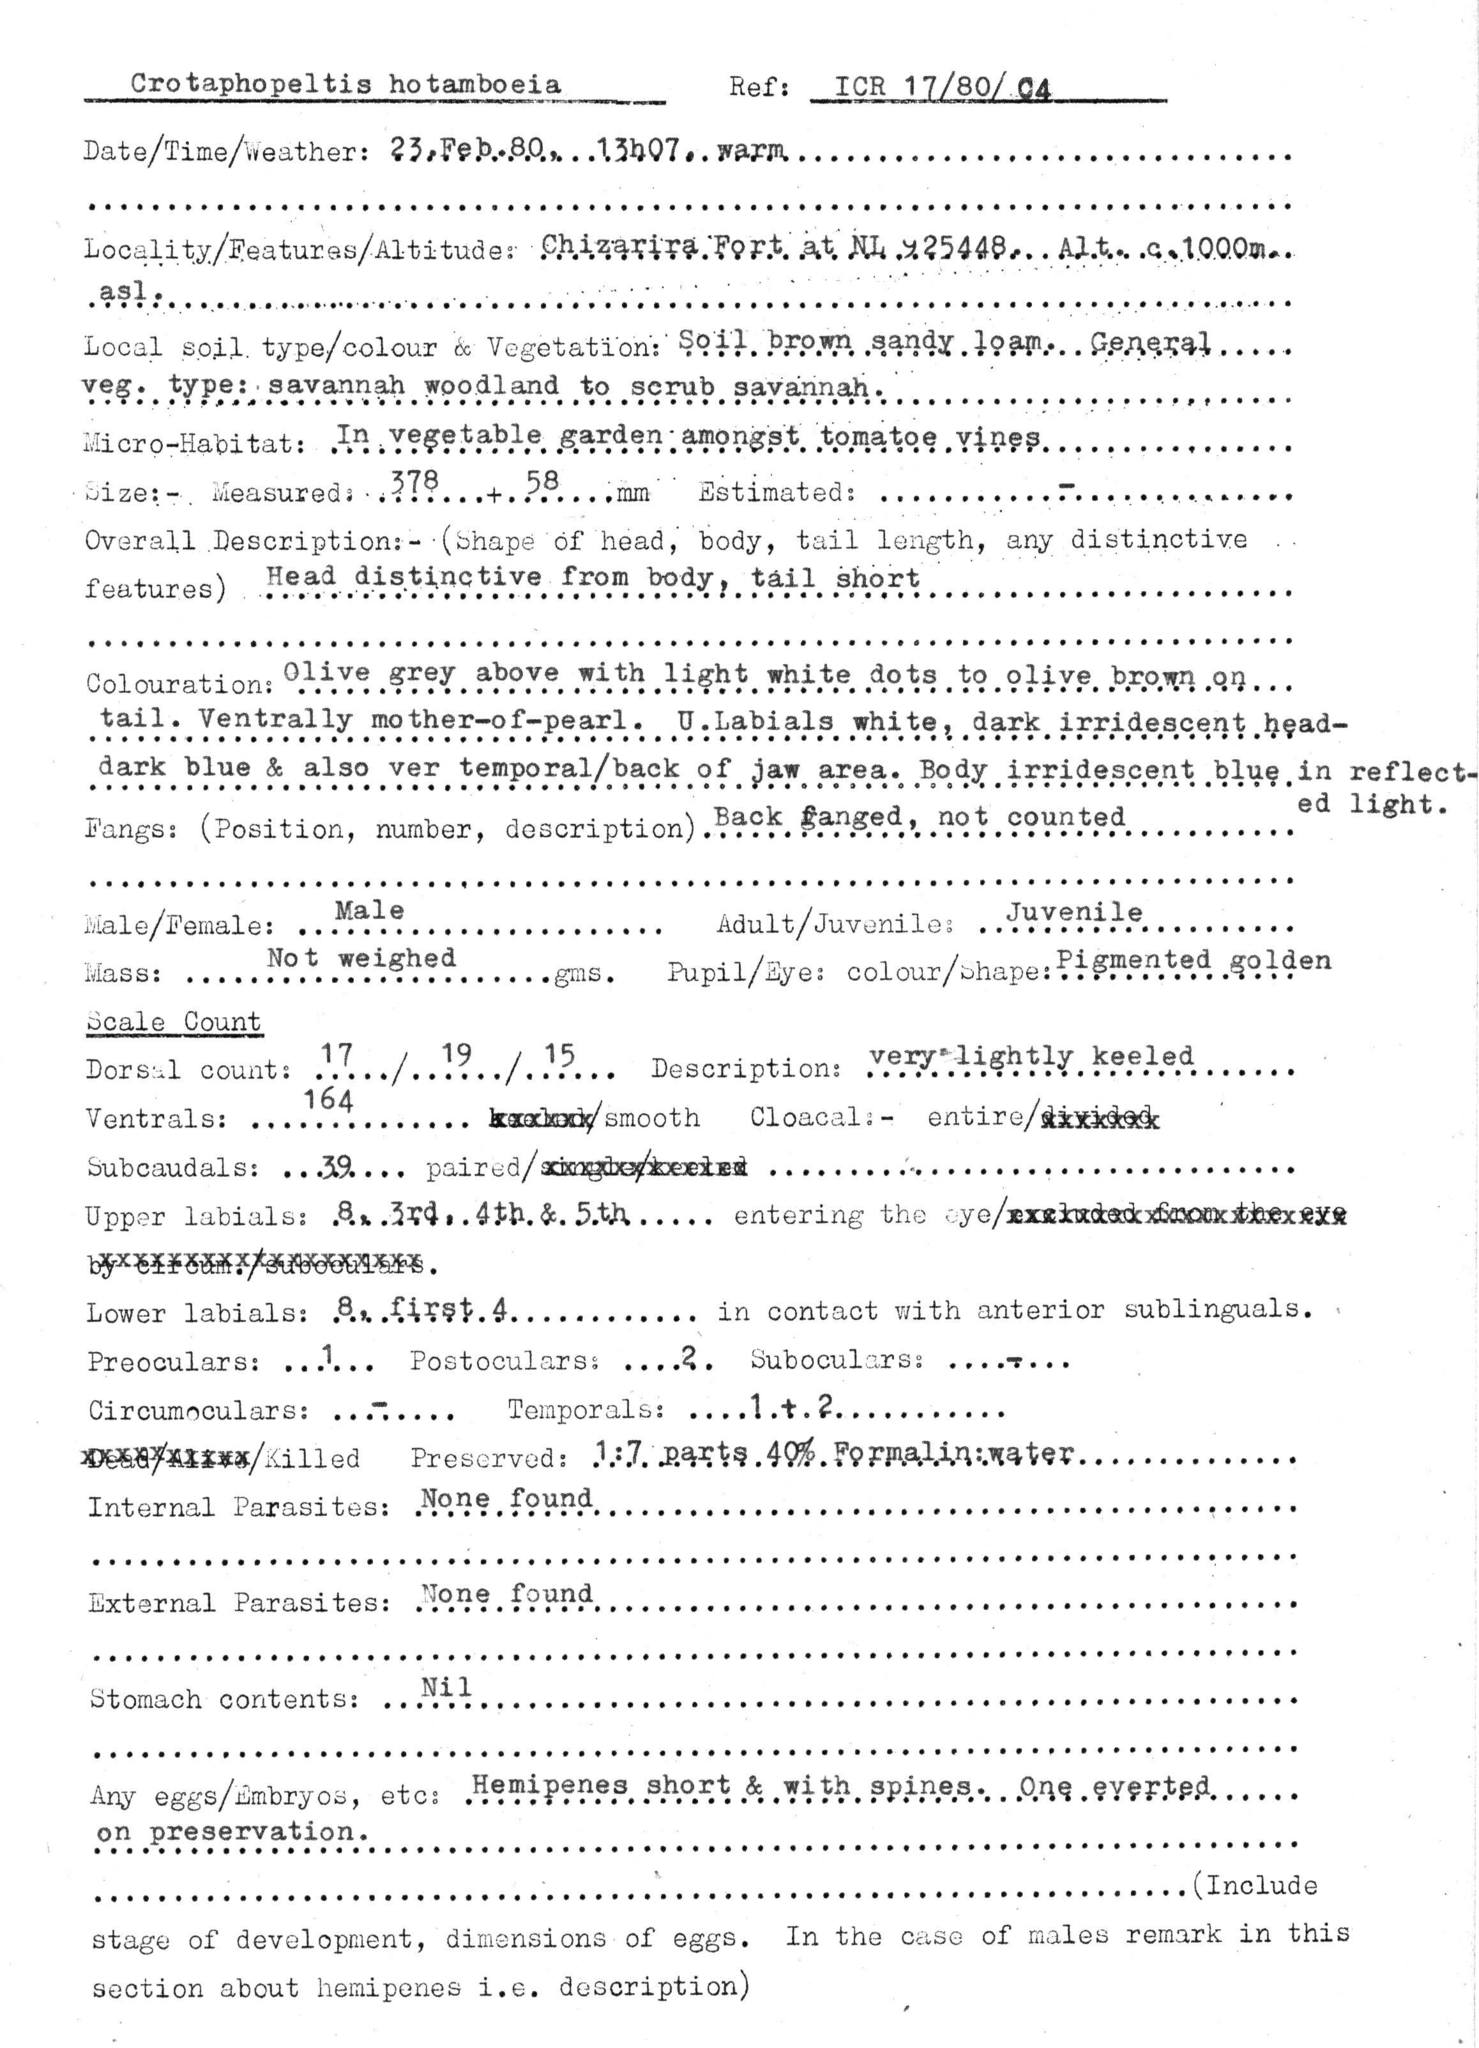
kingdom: Animalia
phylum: Chordata
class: Squamata
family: Colubridae
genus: Crotaphopeltis
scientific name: Crotaphopeltis hotamboeia
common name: Red-lipped snake
